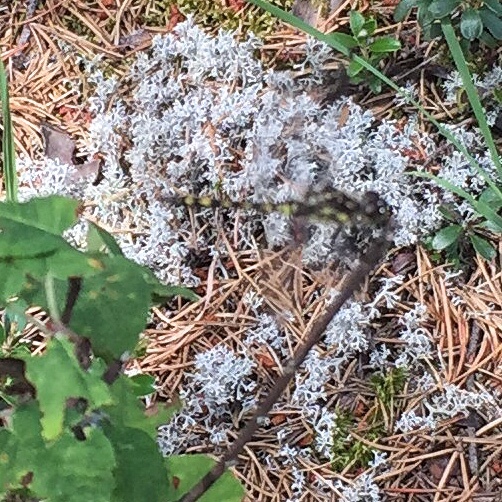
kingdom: Animalia
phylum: Arthropoda
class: Insecta
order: Odonata
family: Libellulidae
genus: Sympetrum
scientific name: Sympetrum danae
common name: Black darter
